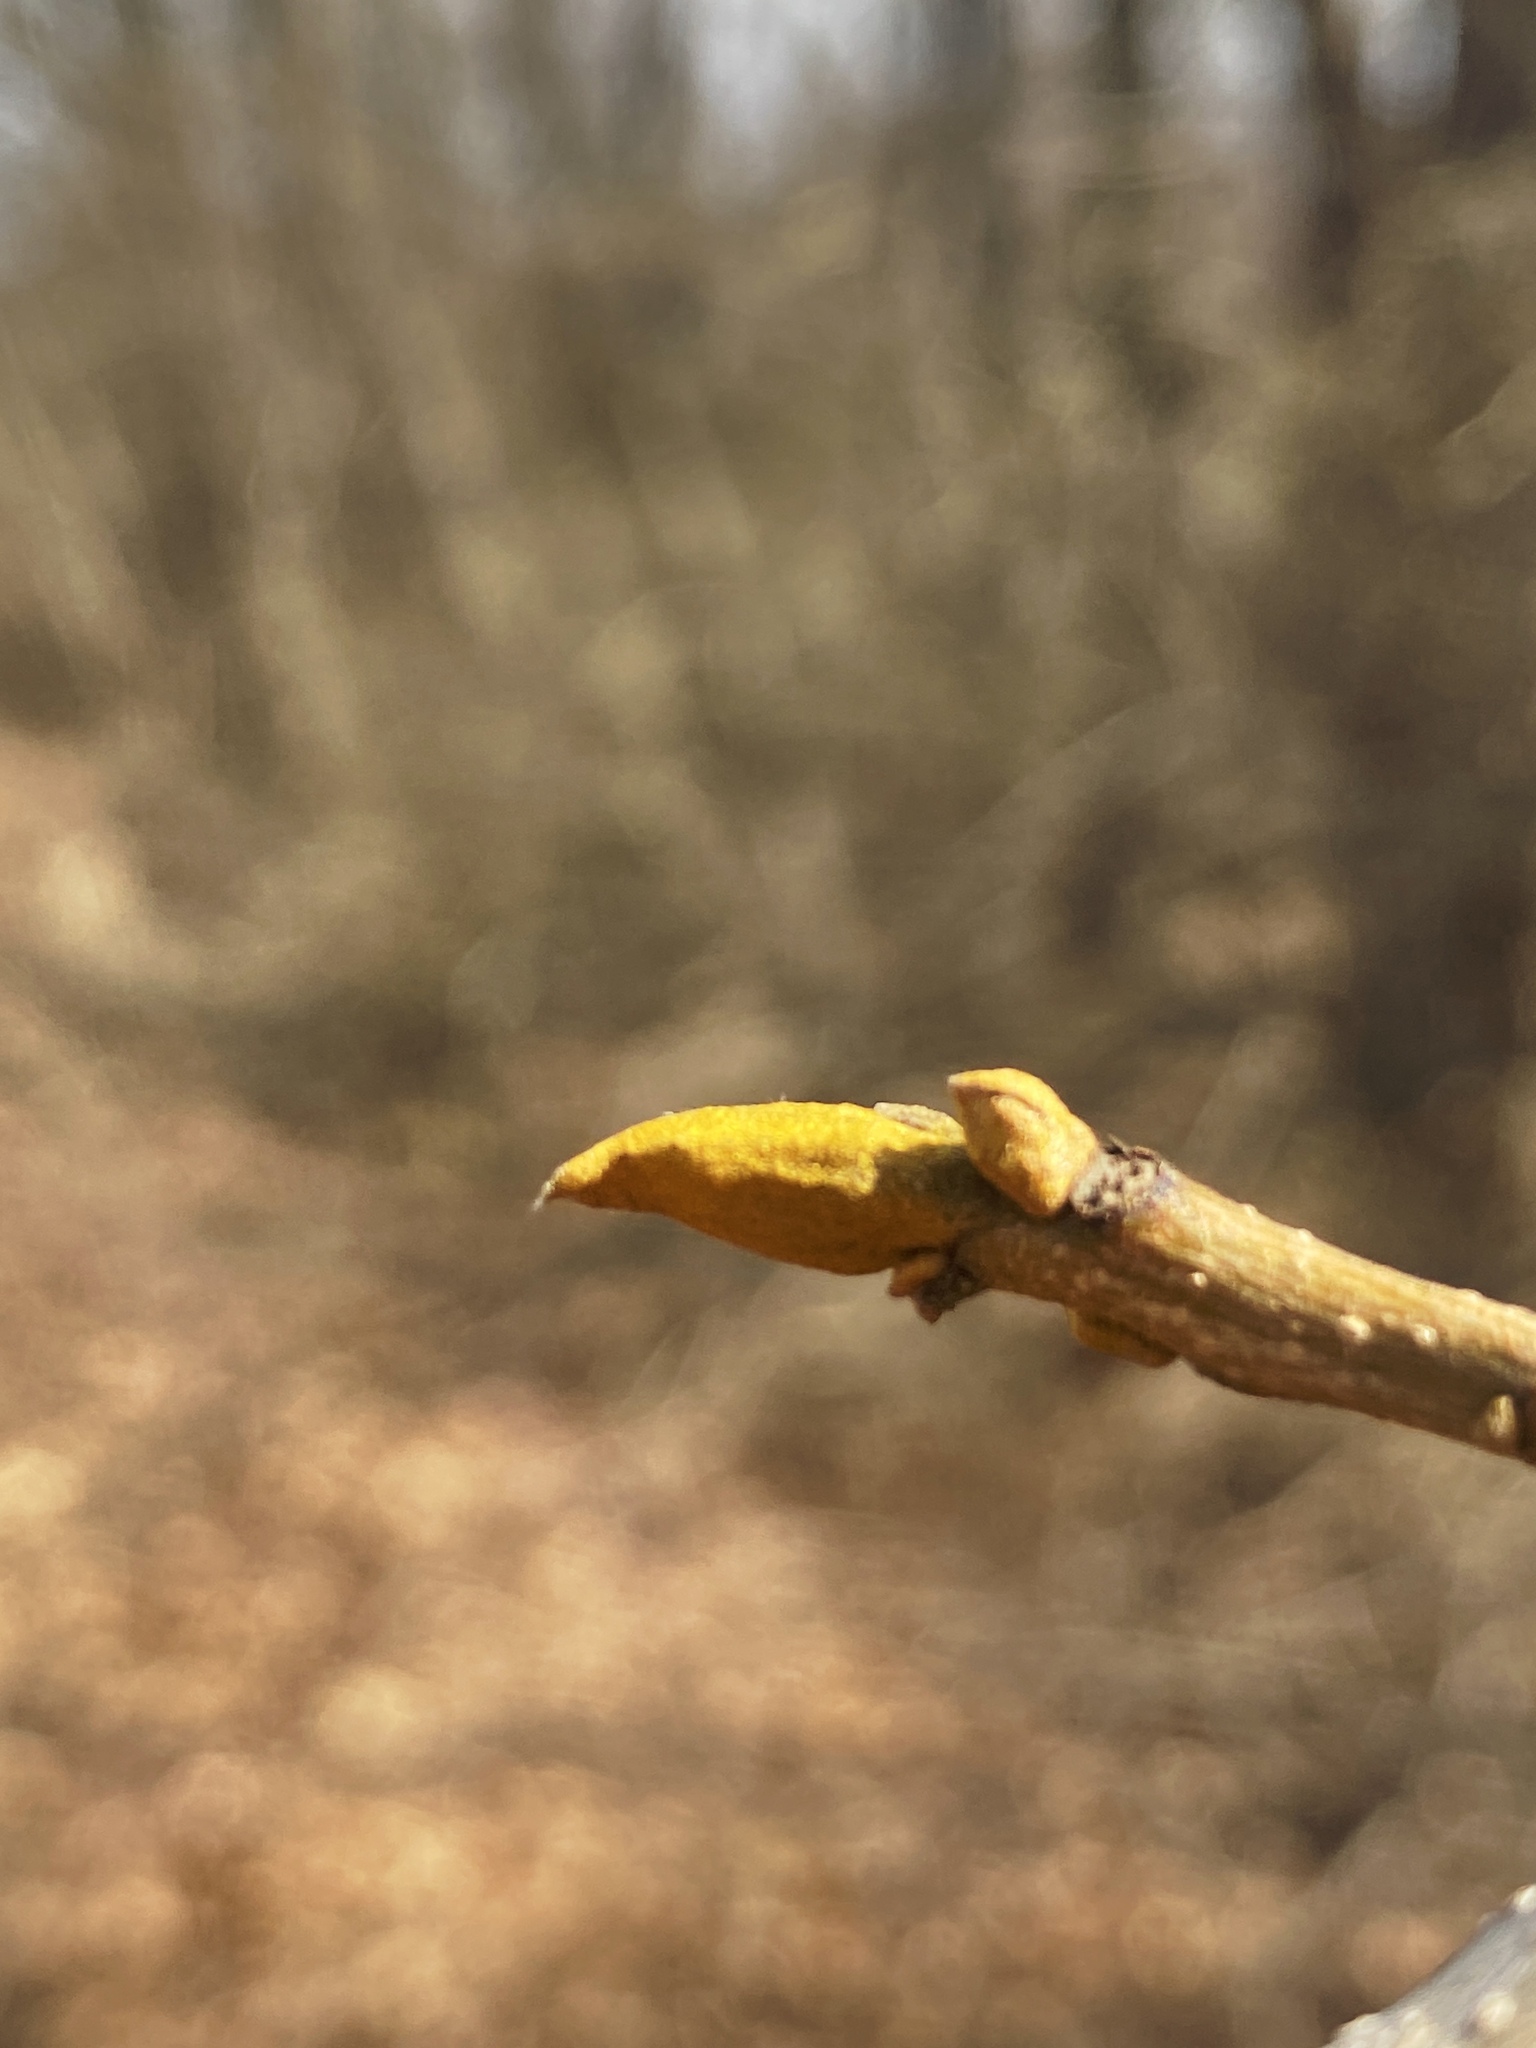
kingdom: Plantae
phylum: Tracheophyta
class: Magnoliopsida
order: Fagales
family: Juglandaceae
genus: Carya
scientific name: Carya cordiformis
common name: Bitternut hickory
